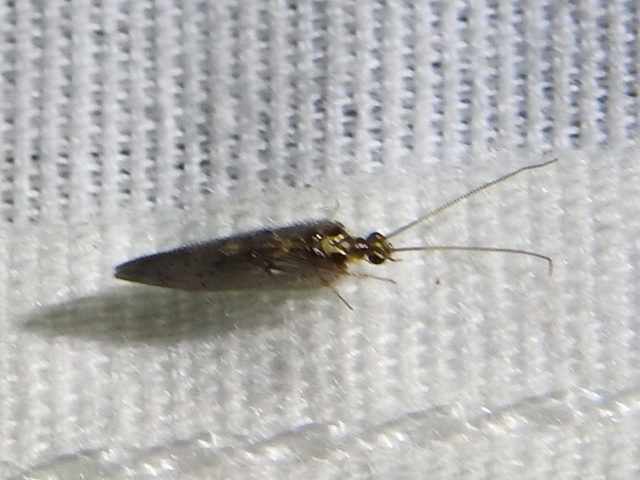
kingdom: Animalia
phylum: Arthropoda
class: Insecta
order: Neuroptera
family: Hemerobiidae
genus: Sympherobius
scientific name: Sympherobius occidentalis
